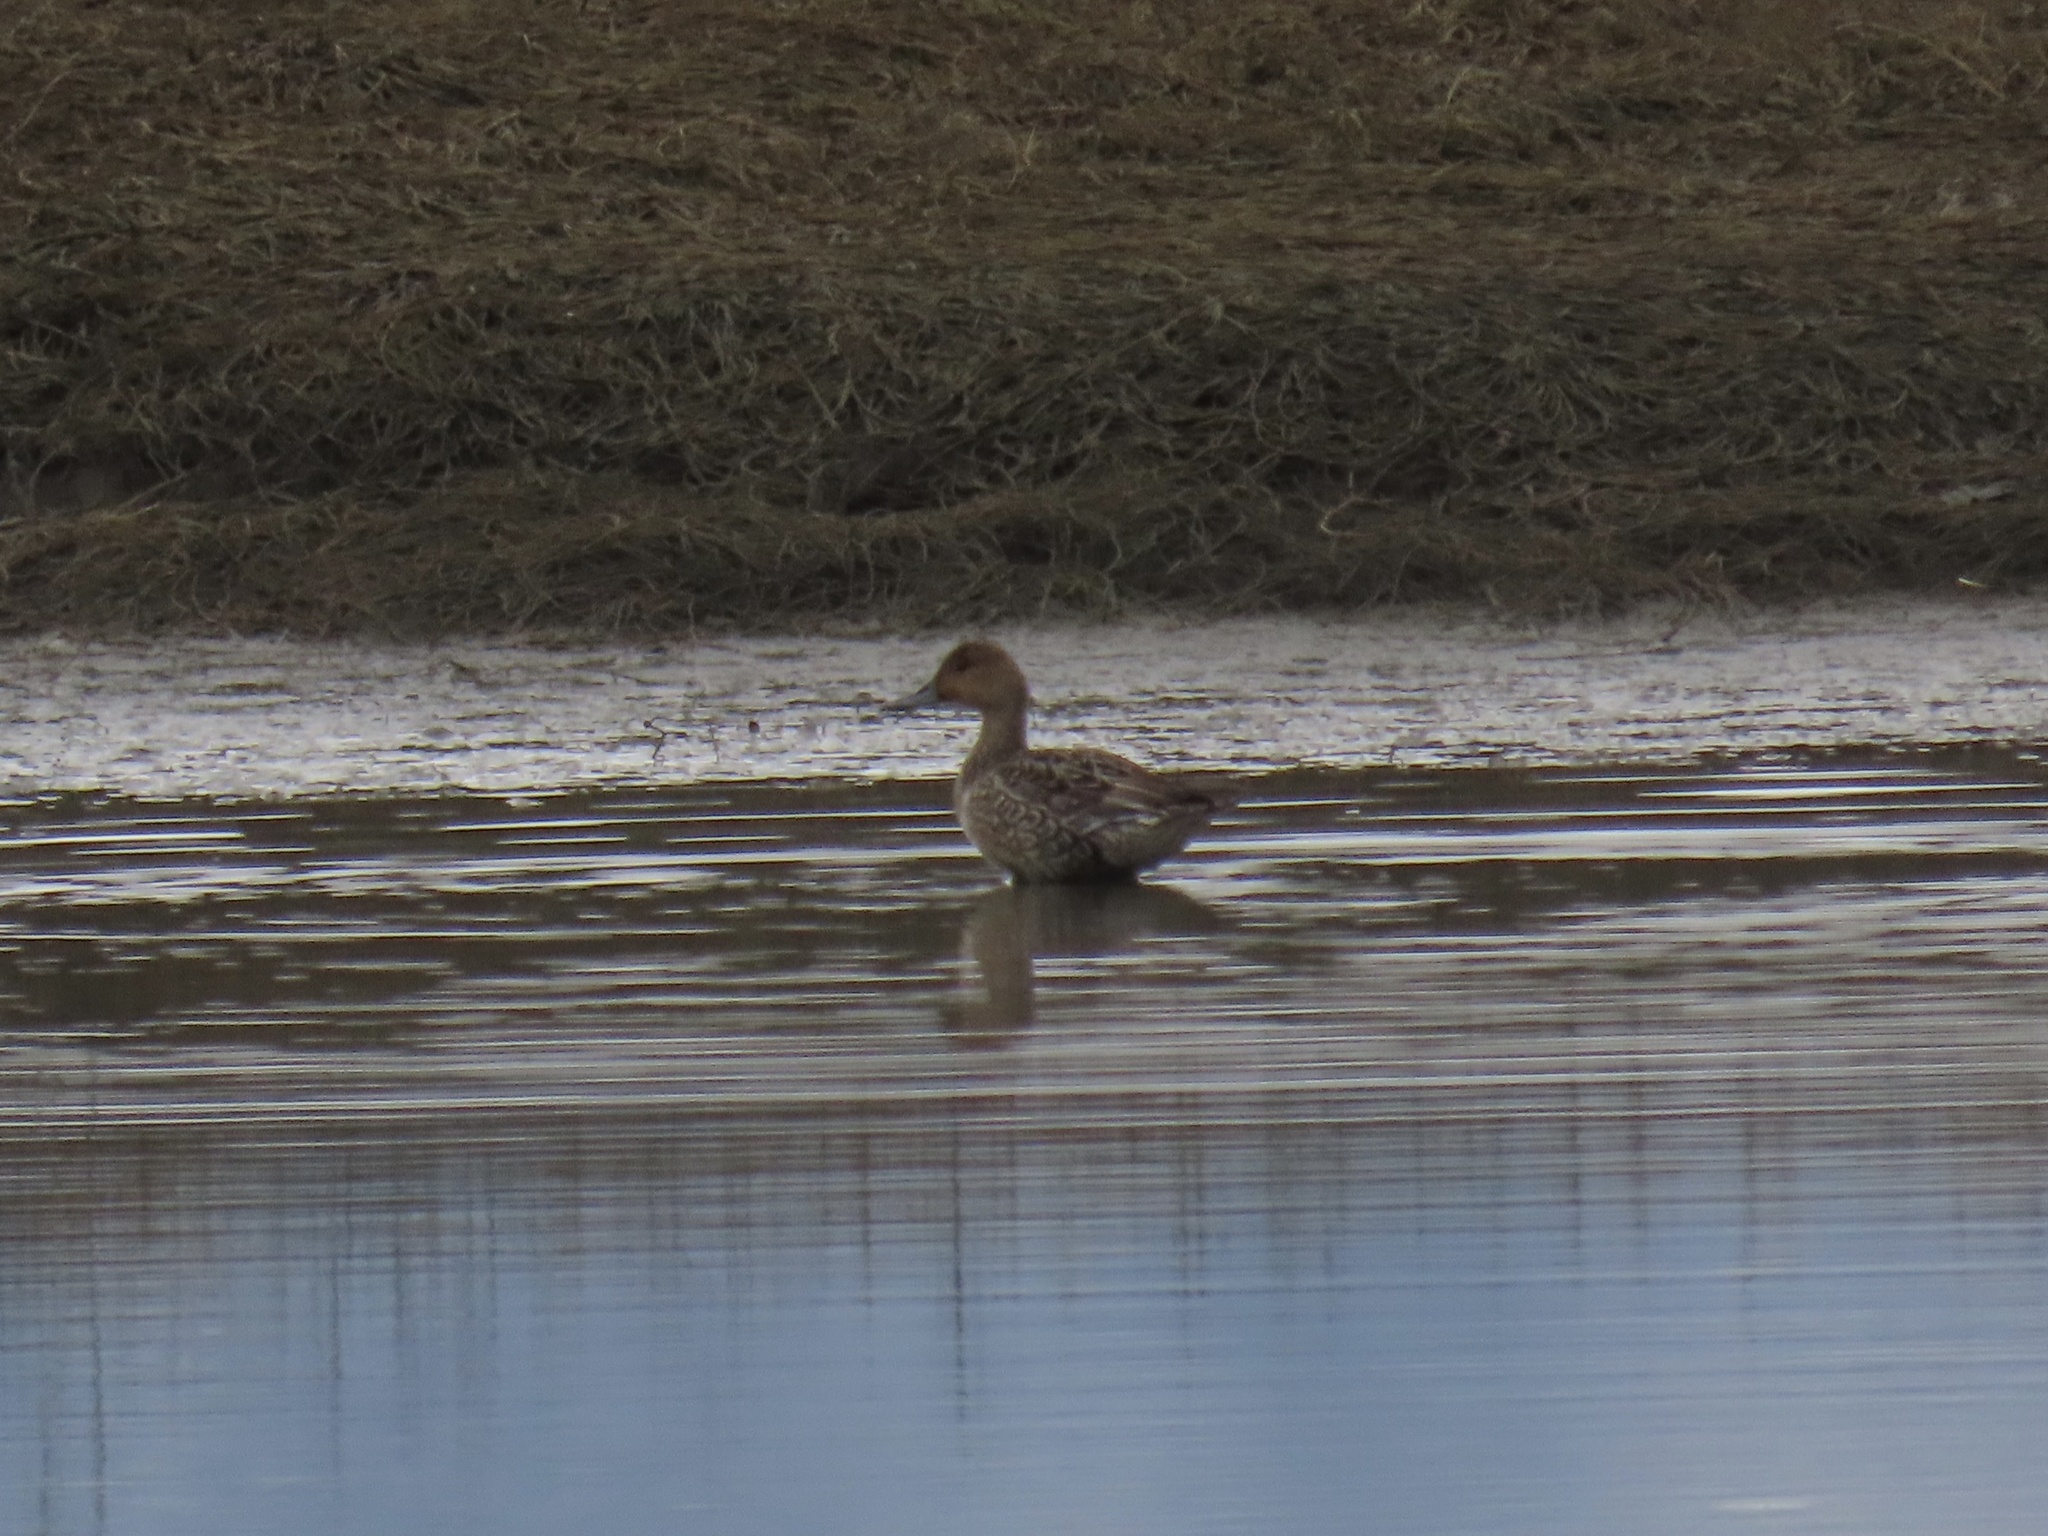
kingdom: Animalia
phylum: Chordata
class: Aves
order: Anseriformes
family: Anatidae
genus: Anas
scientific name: Anas acuta
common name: Northern pintail
